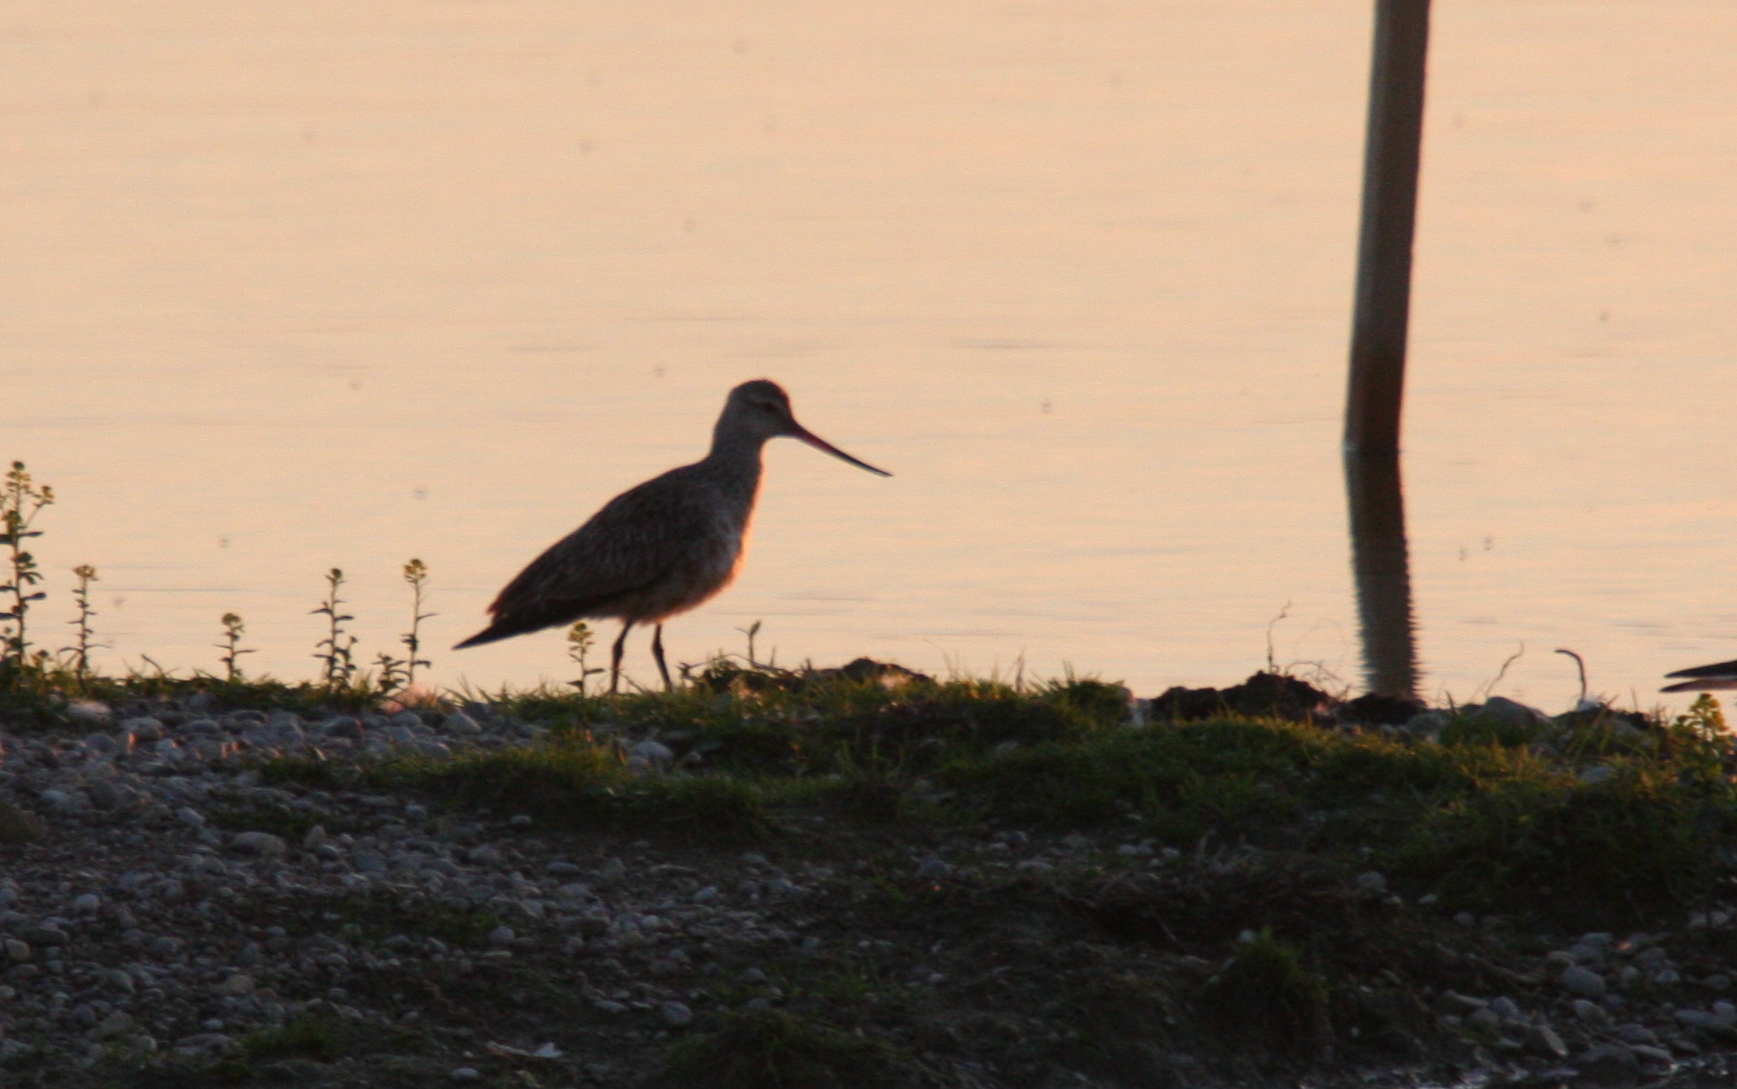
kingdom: Animalia
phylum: Chordata
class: Aves
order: Charadriiformes
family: Scolopacidae
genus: Limosa
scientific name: Limosa lapponica
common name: Bar-tailed godwit
